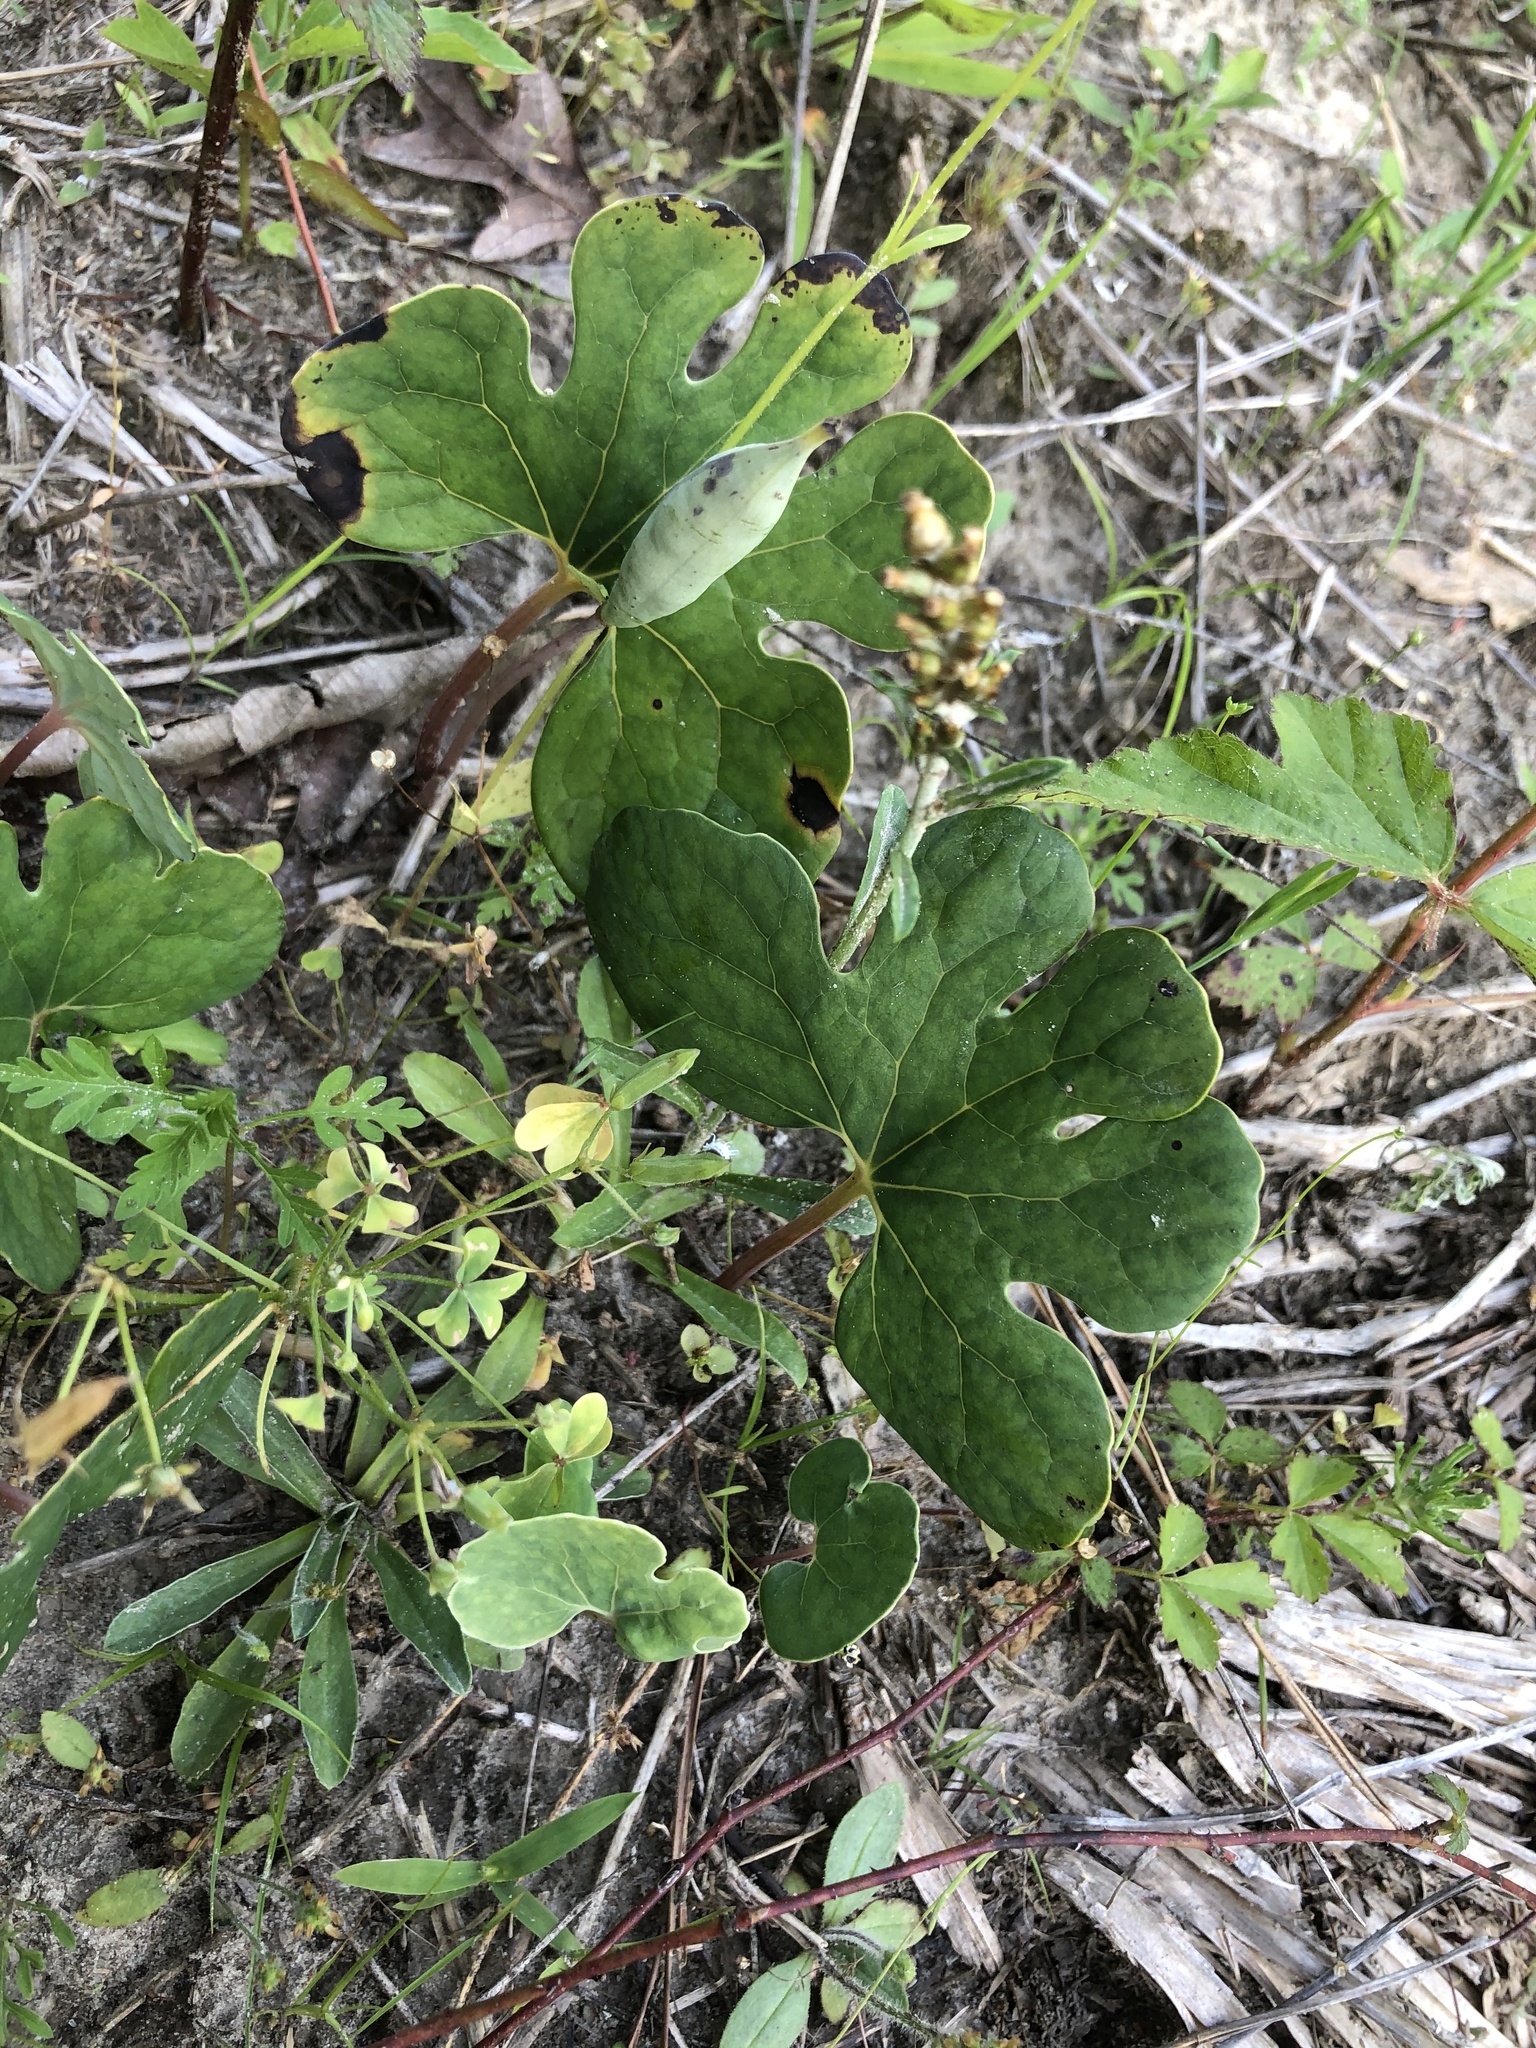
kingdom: Plantae
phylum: Tracheophyta
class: Magnoliopsida
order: Ranunculales
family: Papaveraceae
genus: Sanguinaria
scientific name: Sanguinaria canadensis
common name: Bloodroot
